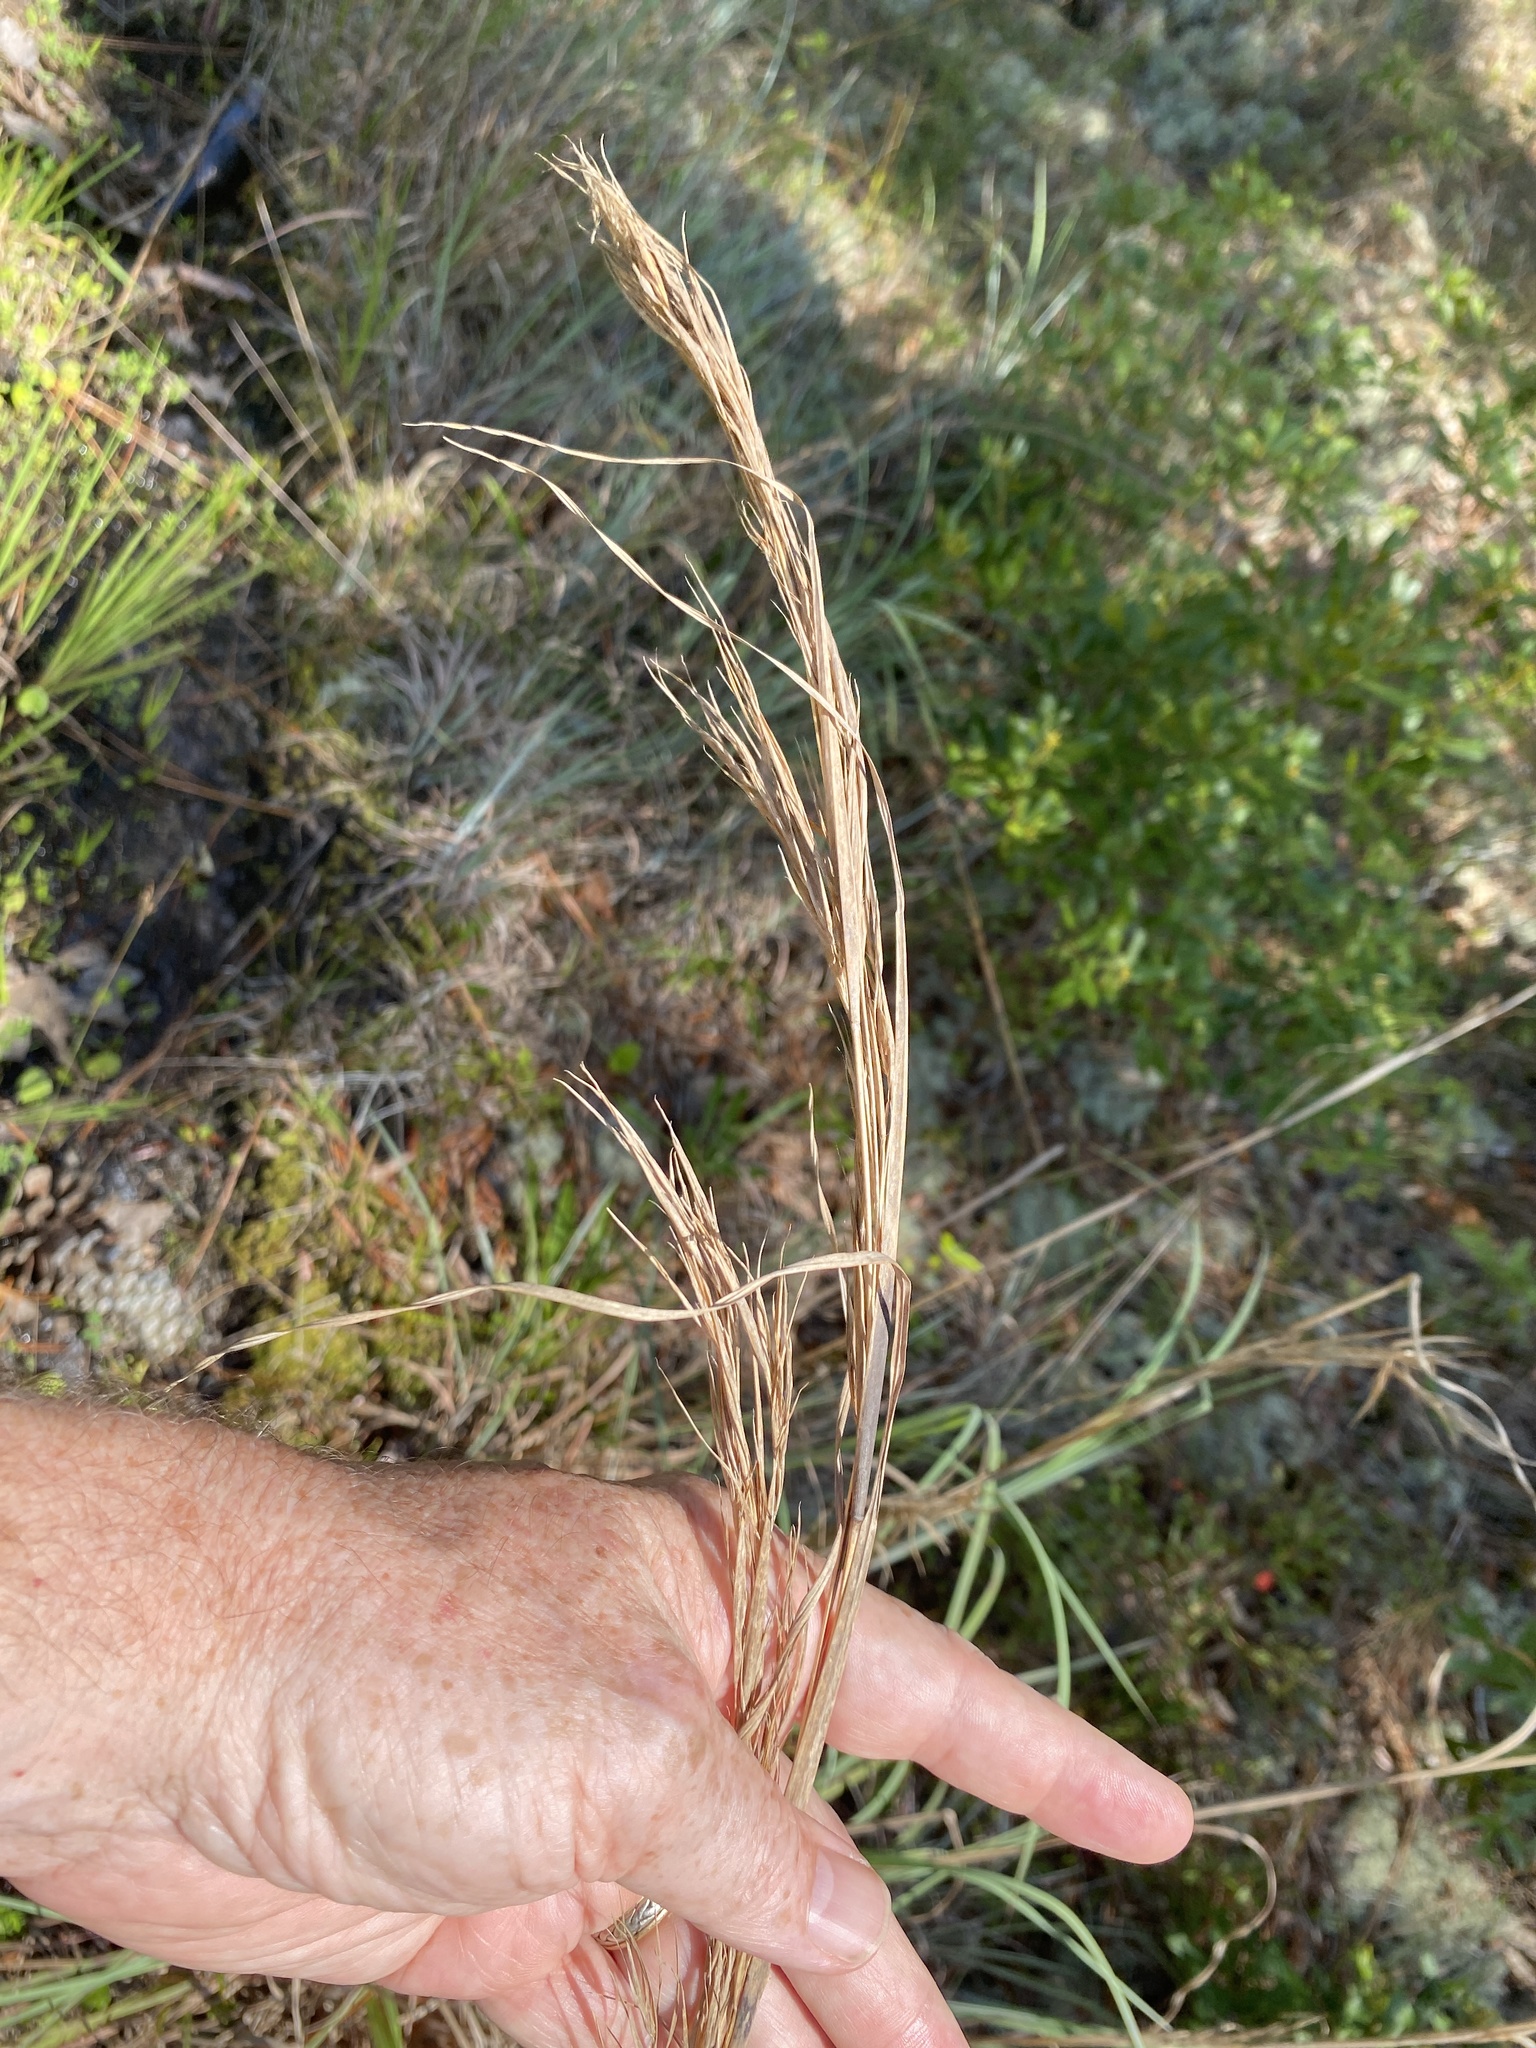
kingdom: Plantae
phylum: Tracheophyta
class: Liliopsida
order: Poales
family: Poaceae
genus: Andropogon
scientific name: Andropogon cretaceus
